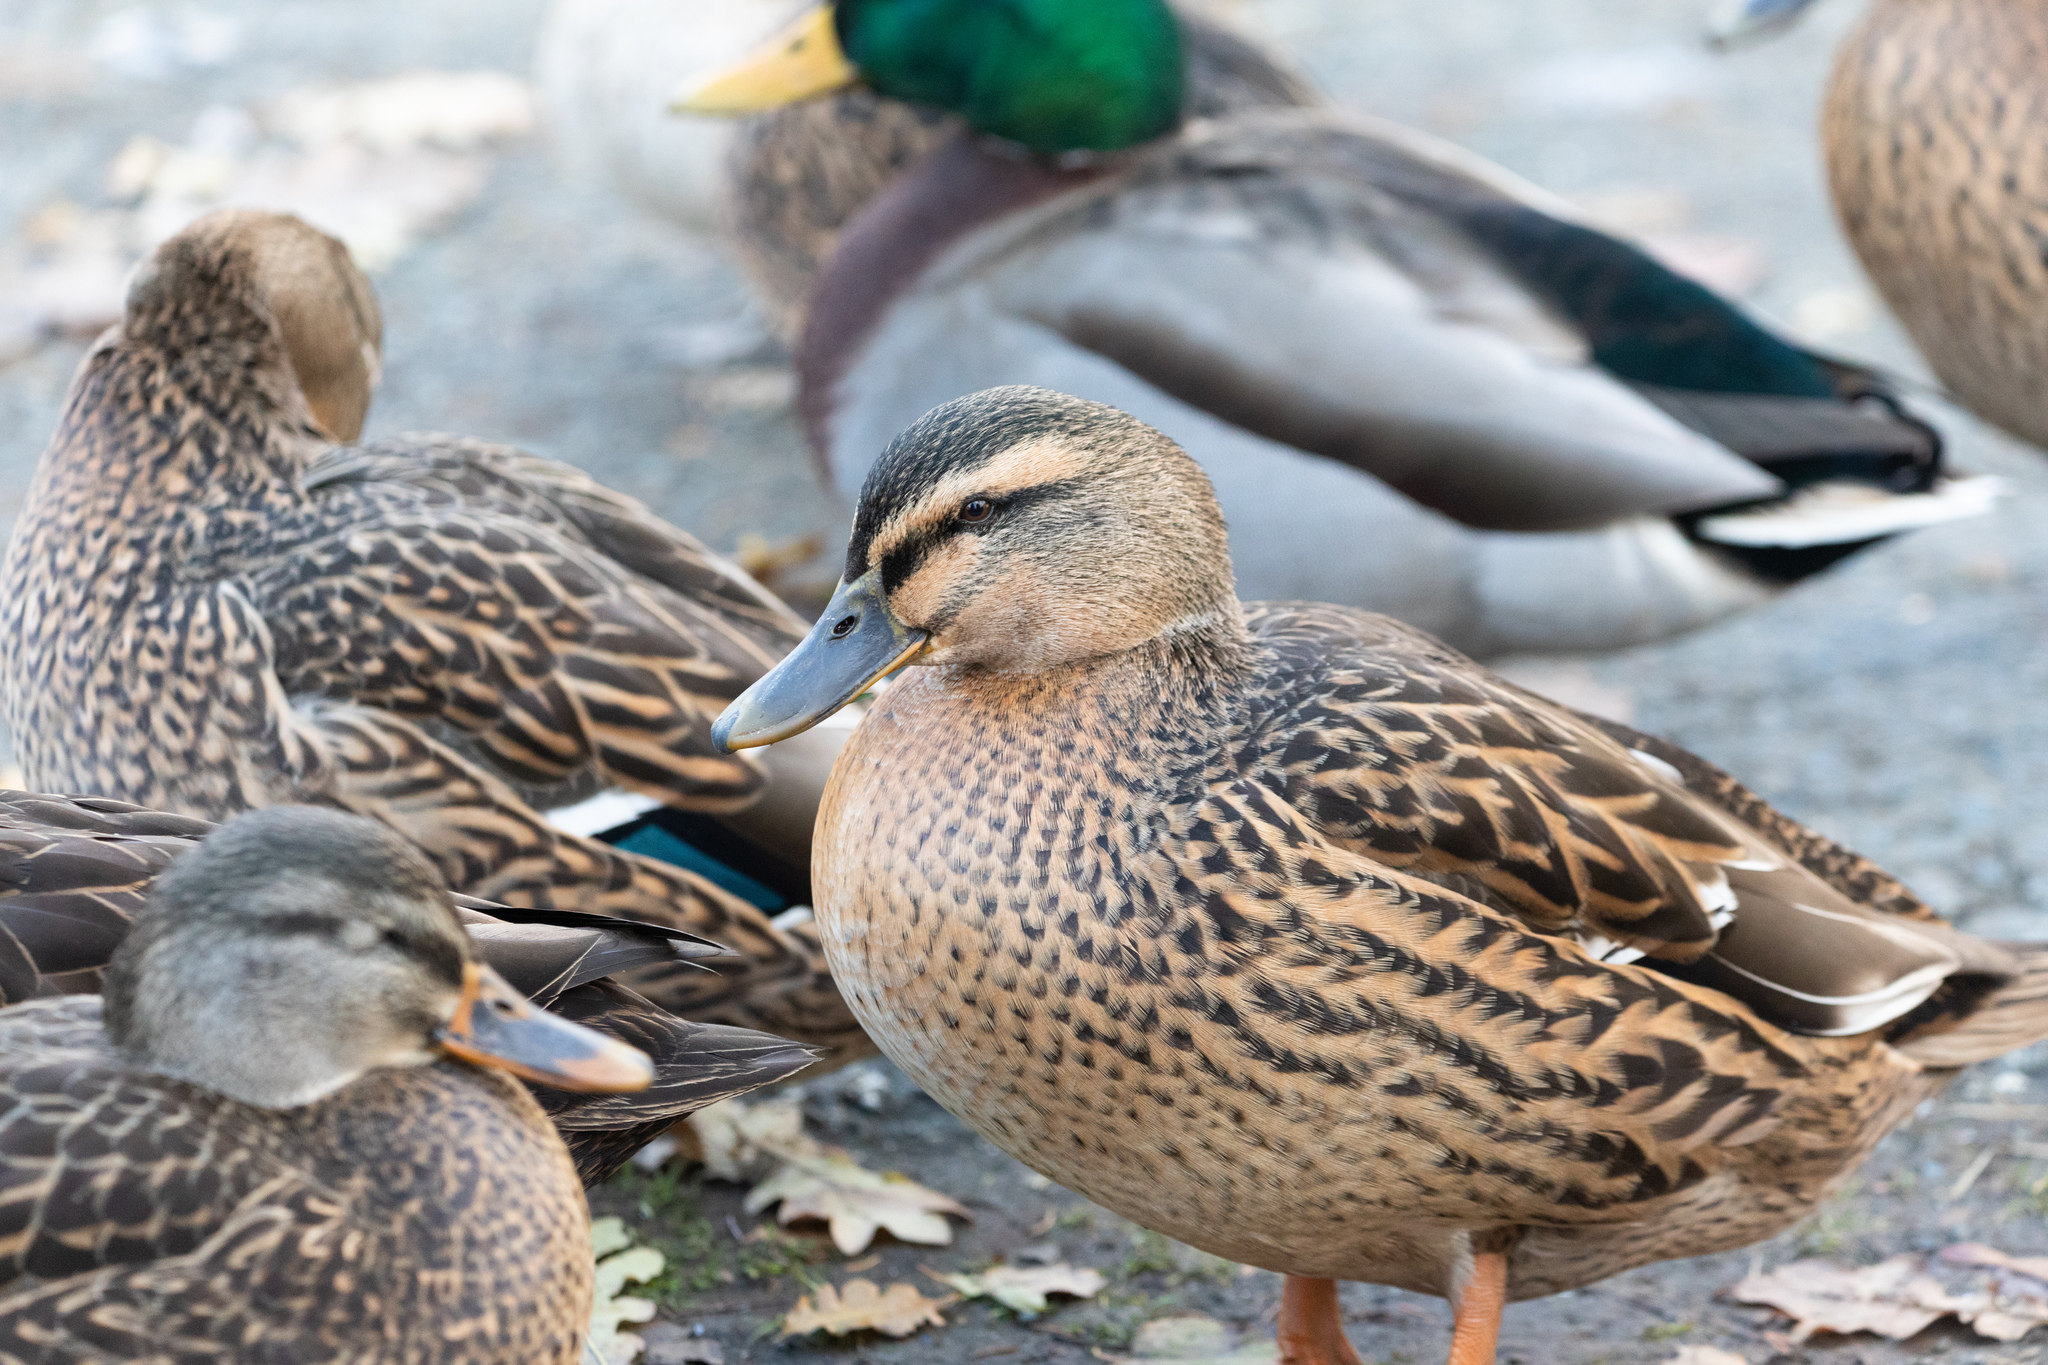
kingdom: Animalia
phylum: Chordata
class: Aves
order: Anseriformes
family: Anatidae
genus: Anas
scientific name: Anas platyrhynchos
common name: Mallard
